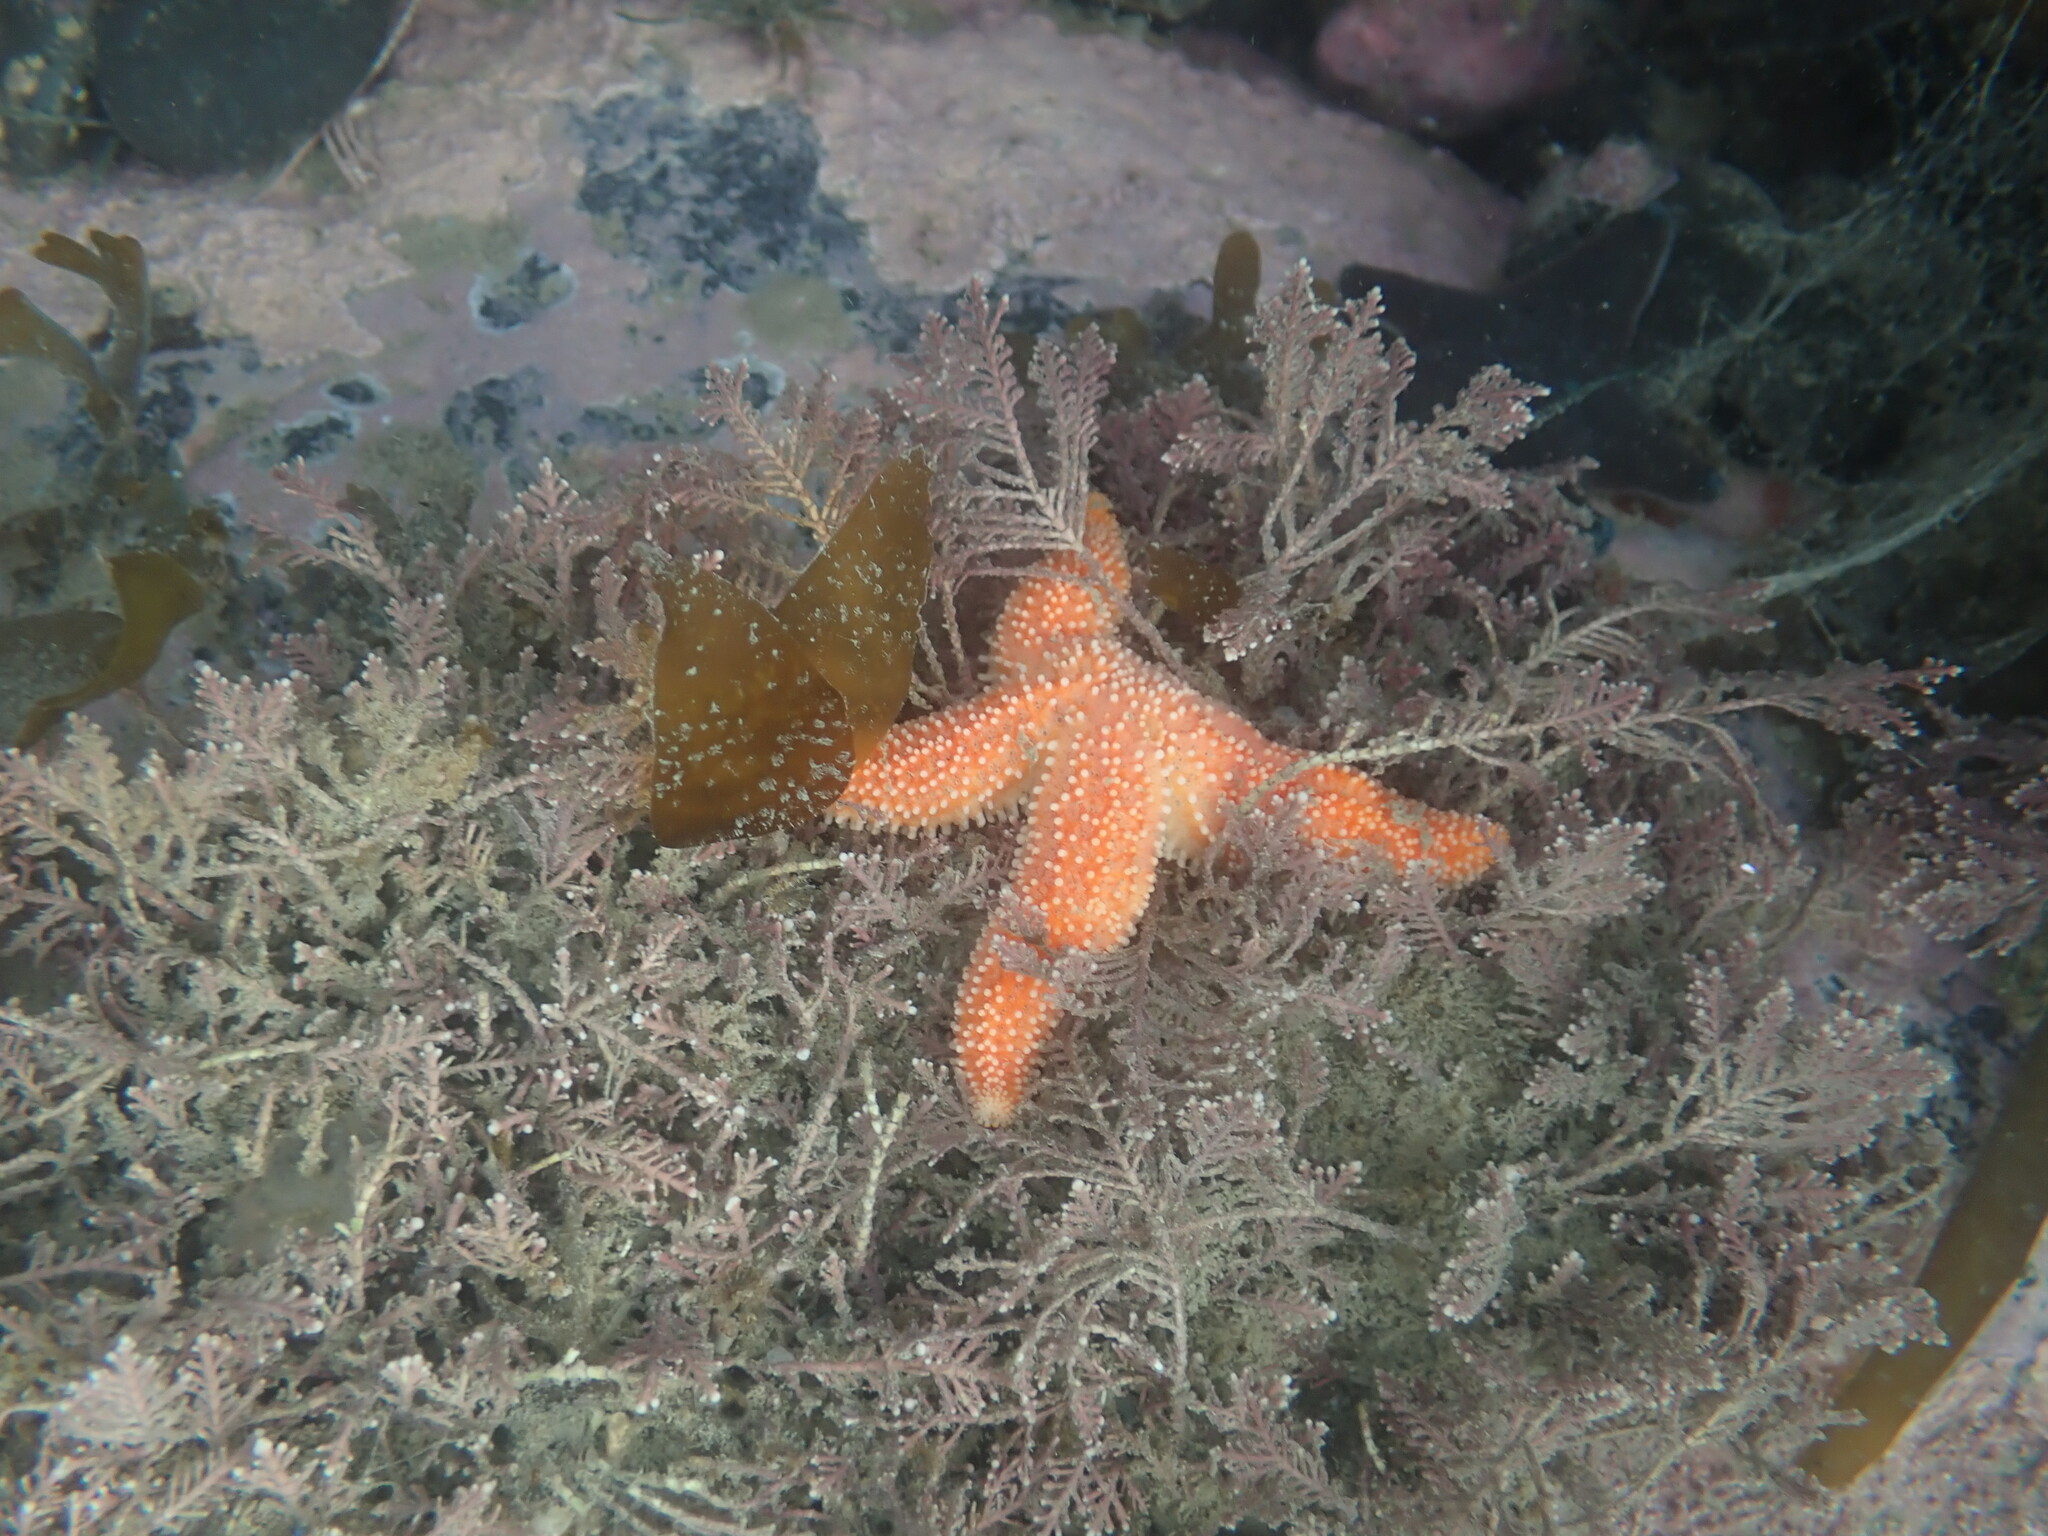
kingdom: Animalia
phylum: Echinodermata
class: Asteroidea
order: Forcipulatida
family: Stichasteridae
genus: Allostichaster
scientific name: Allostichaster insignis
